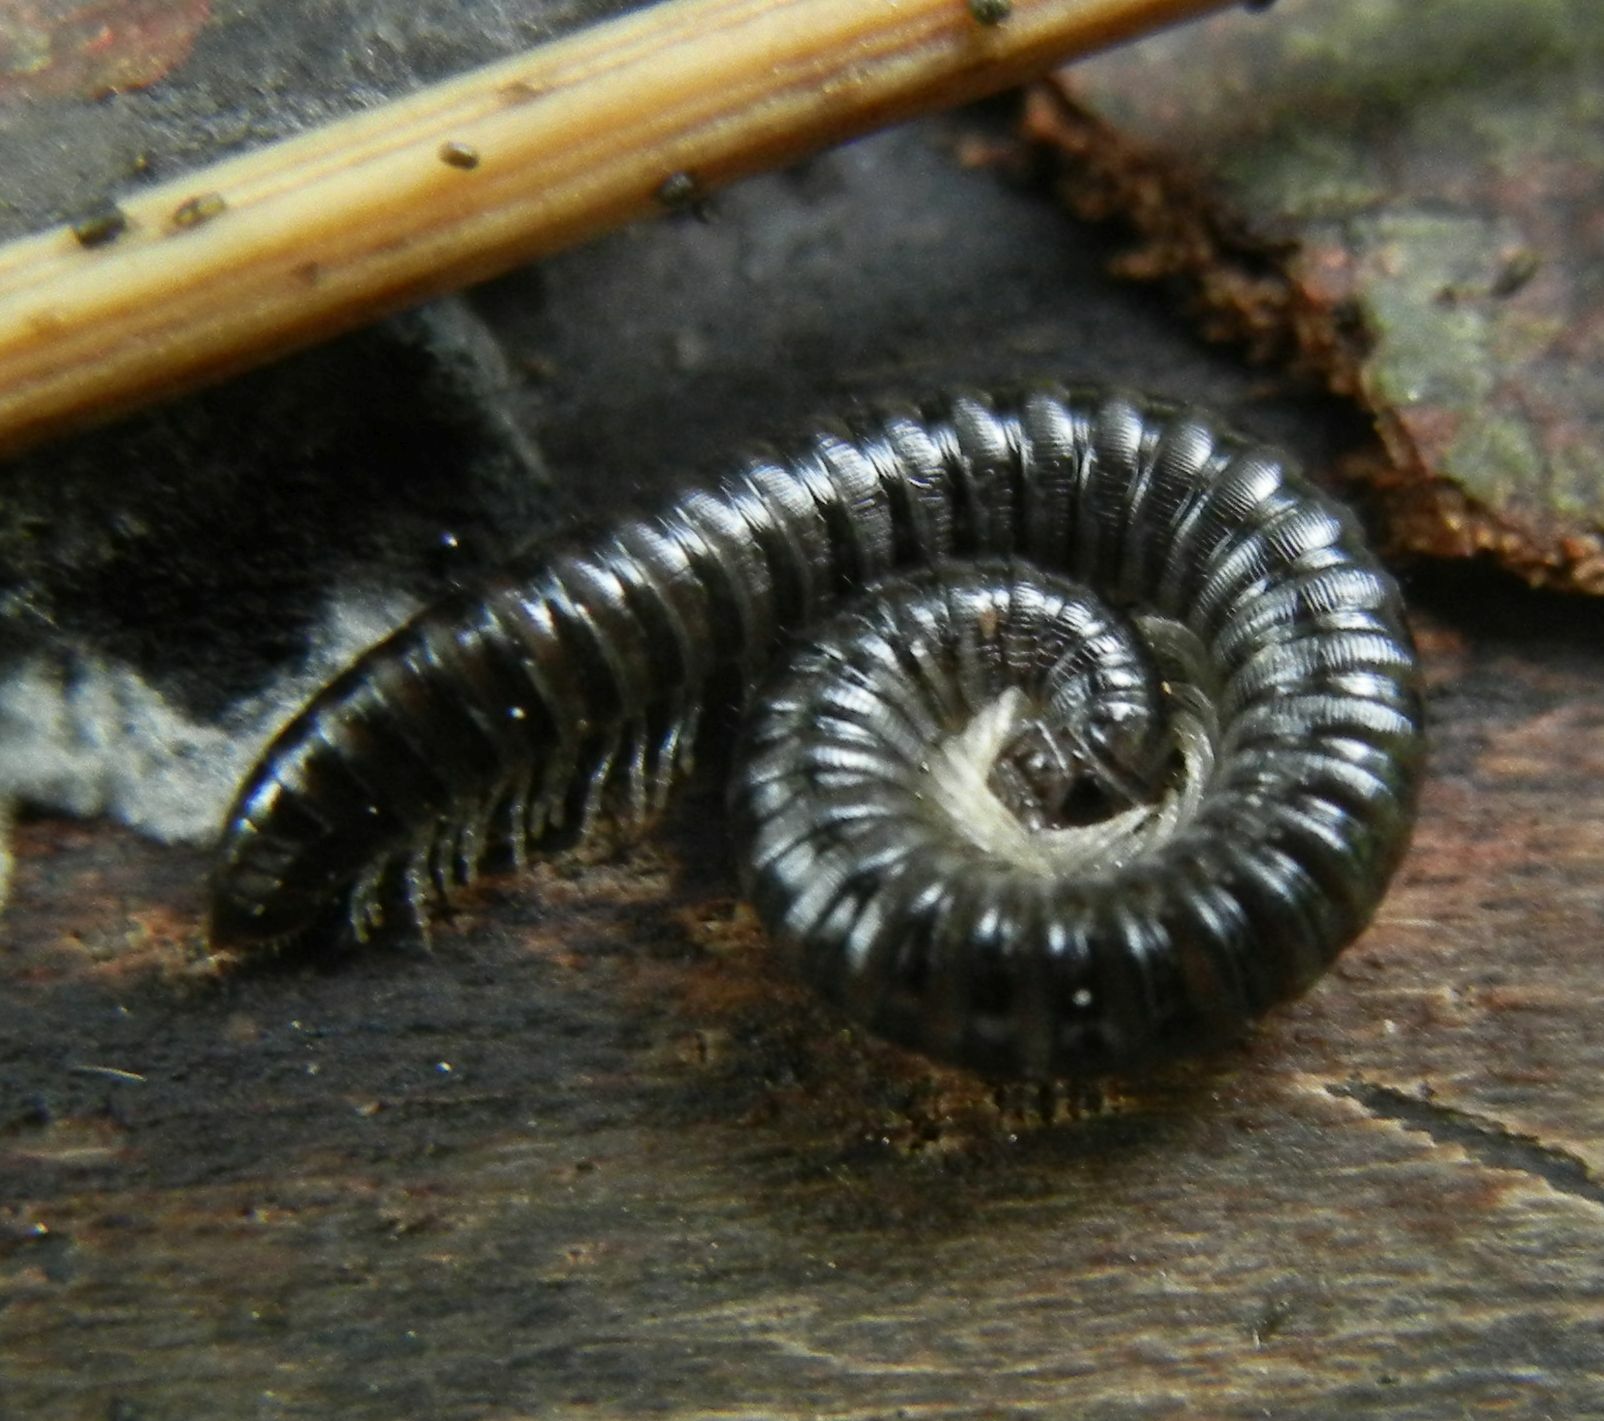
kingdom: Animalia
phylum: Arthropoda
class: Diplopoda
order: Julida
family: Julidae
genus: Tachypodoiulus
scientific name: Tachypodoiulus niger
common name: White-legged snake millipede
